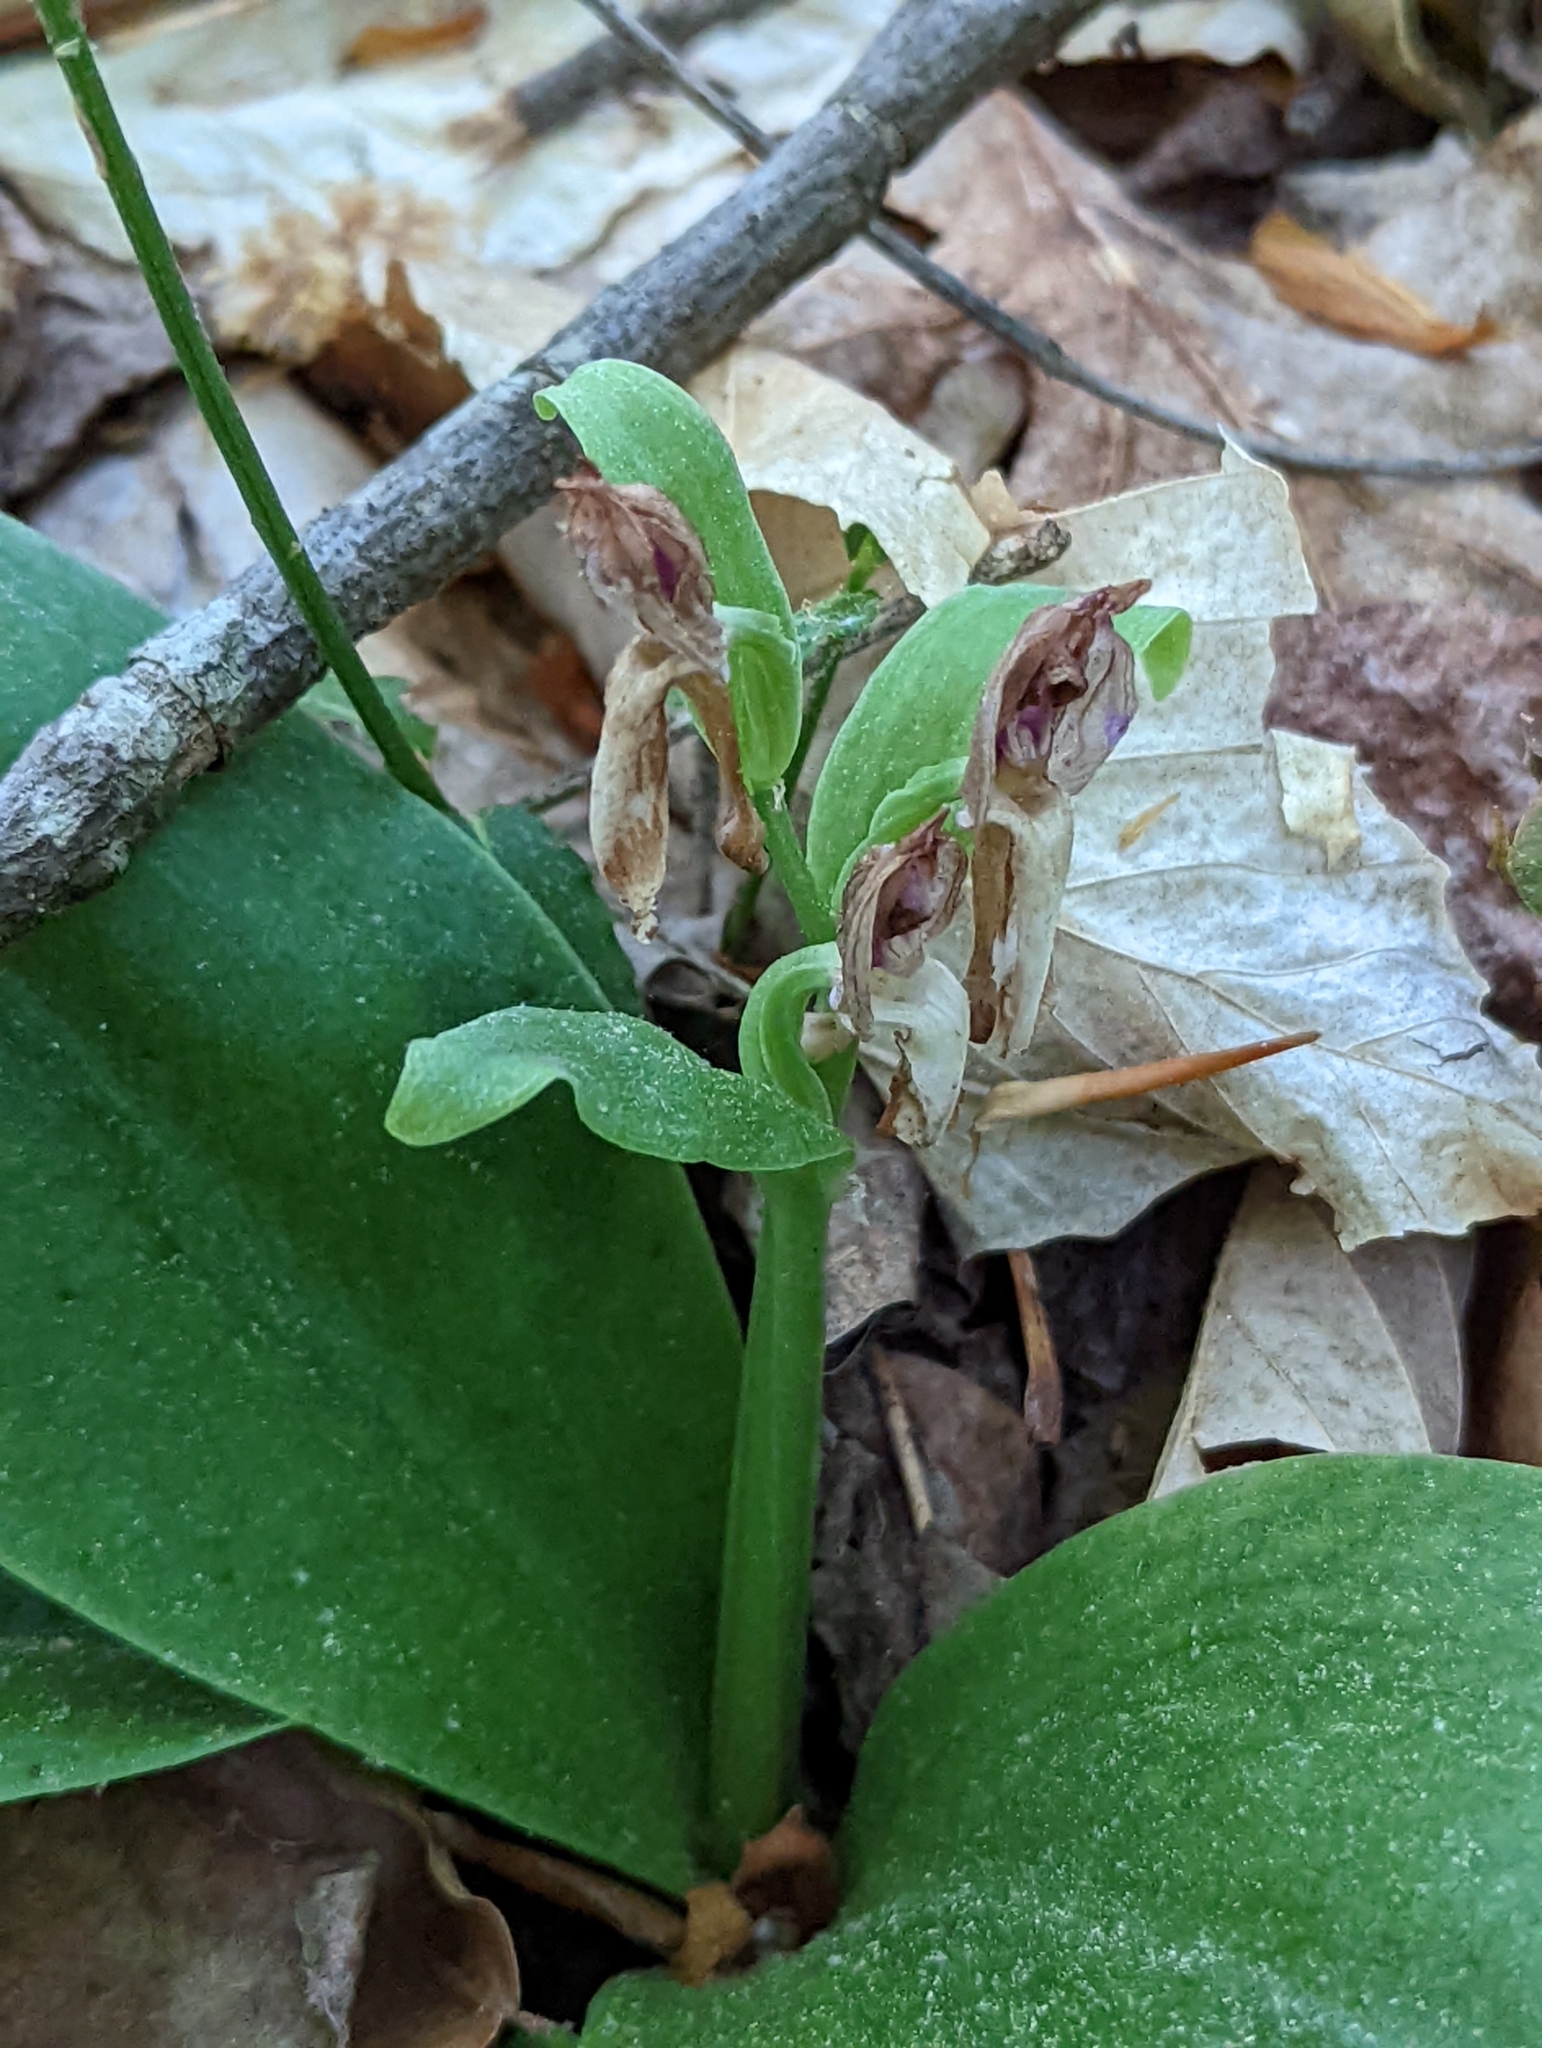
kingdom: Plantae
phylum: Tracheophyta
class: Liliopsida
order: Asparagales
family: Orchidaceae
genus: Galearis
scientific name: Galearis spectabilis
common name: Purple-hooded orchis
